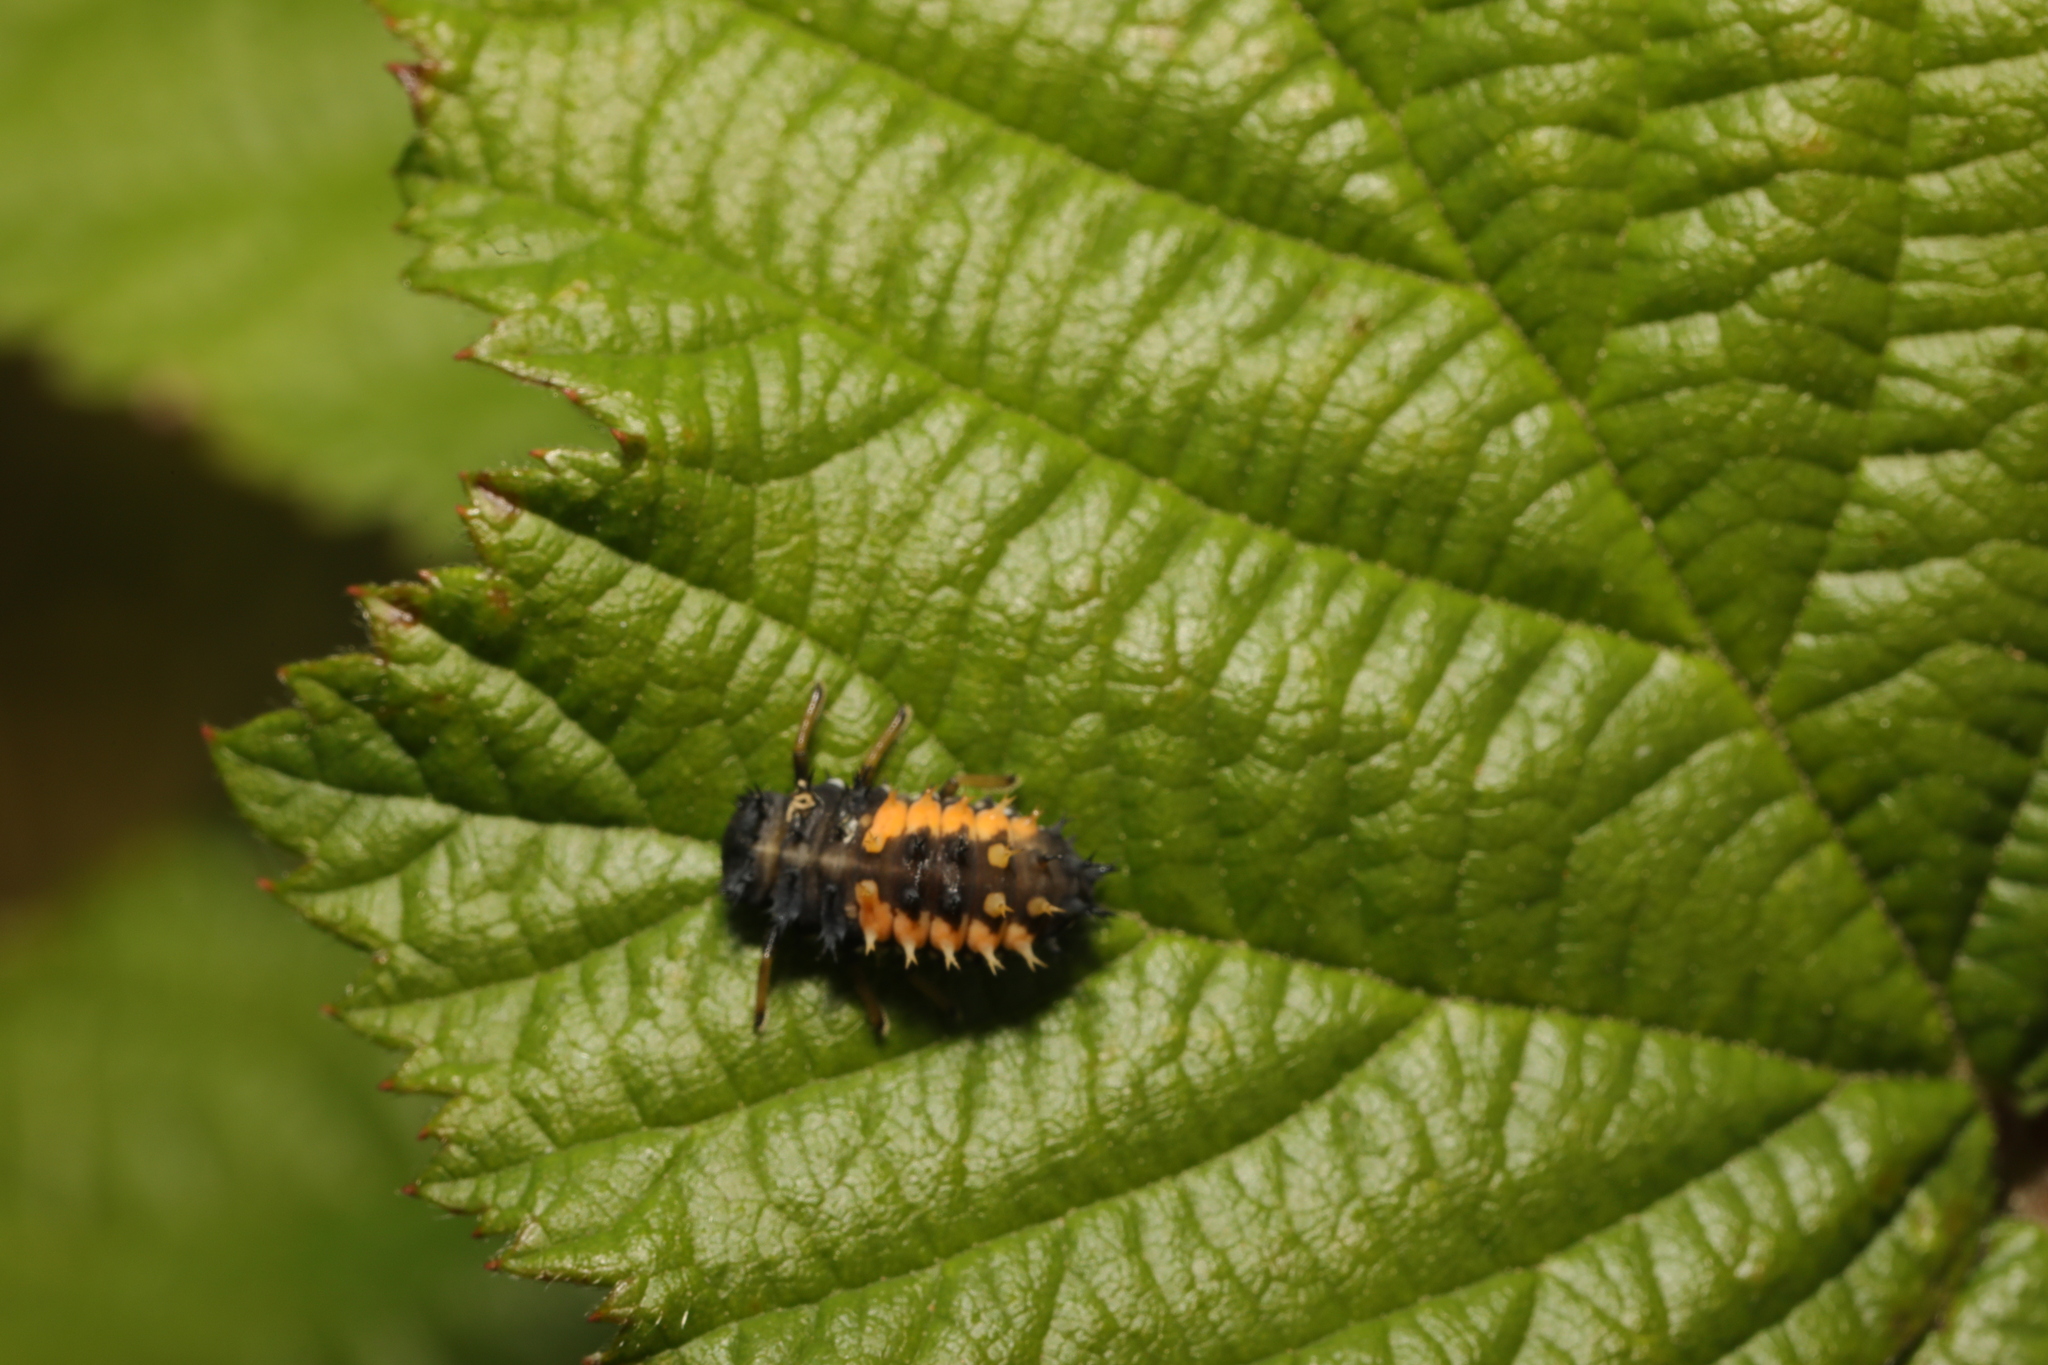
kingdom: Animalia
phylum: Arthropoda
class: Insecta
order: Coleoptera
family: Coccinellidae
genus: Harmonia
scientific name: Harmonia axyridis
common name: Harlequin ladybird
